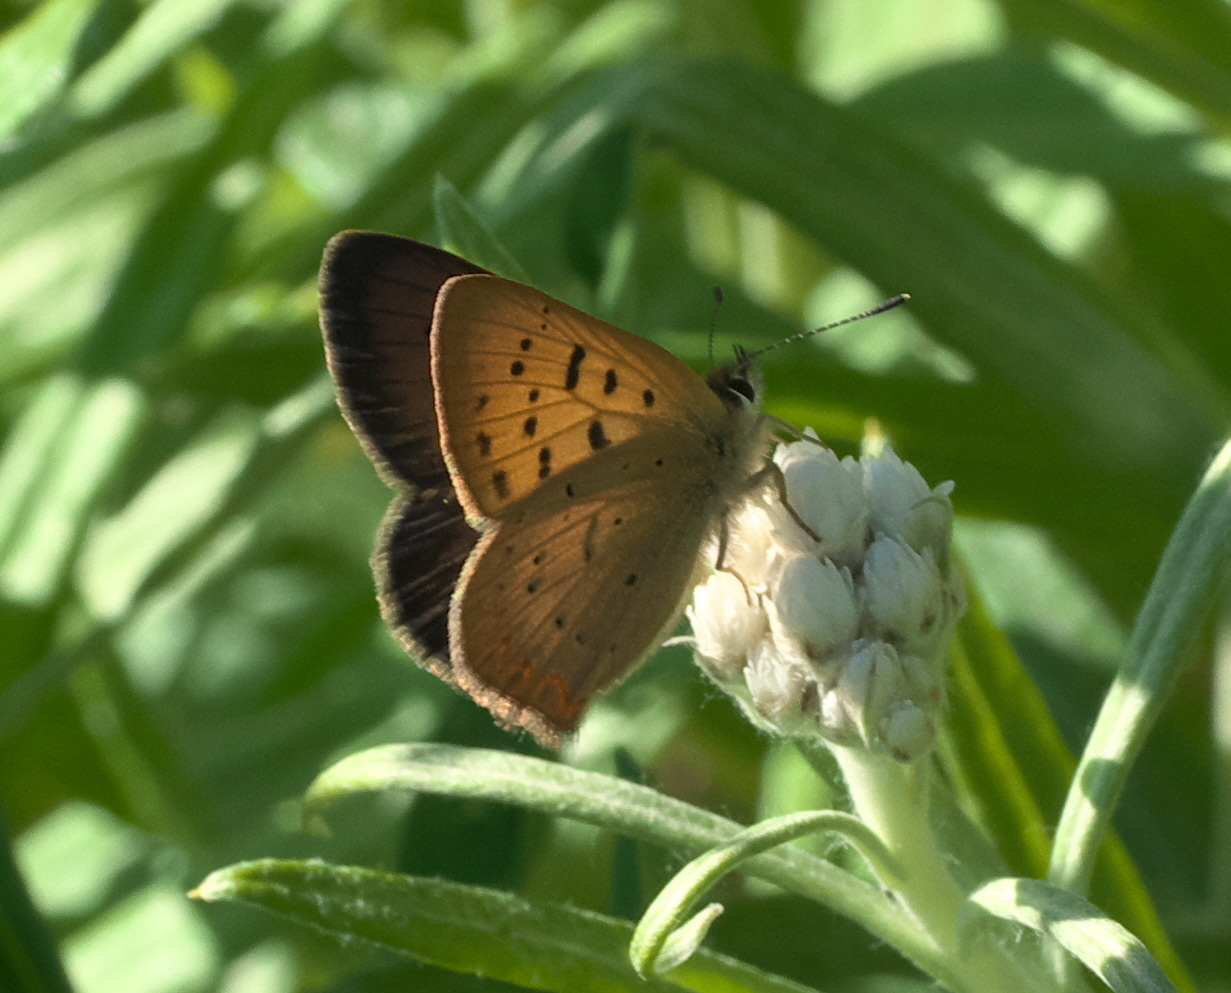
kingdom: Animalia
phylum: Arthropoda
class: Insecta
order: Lepidoptera
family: Lycaenidae
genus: Tharsalea
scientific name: Tharsalea helloides
